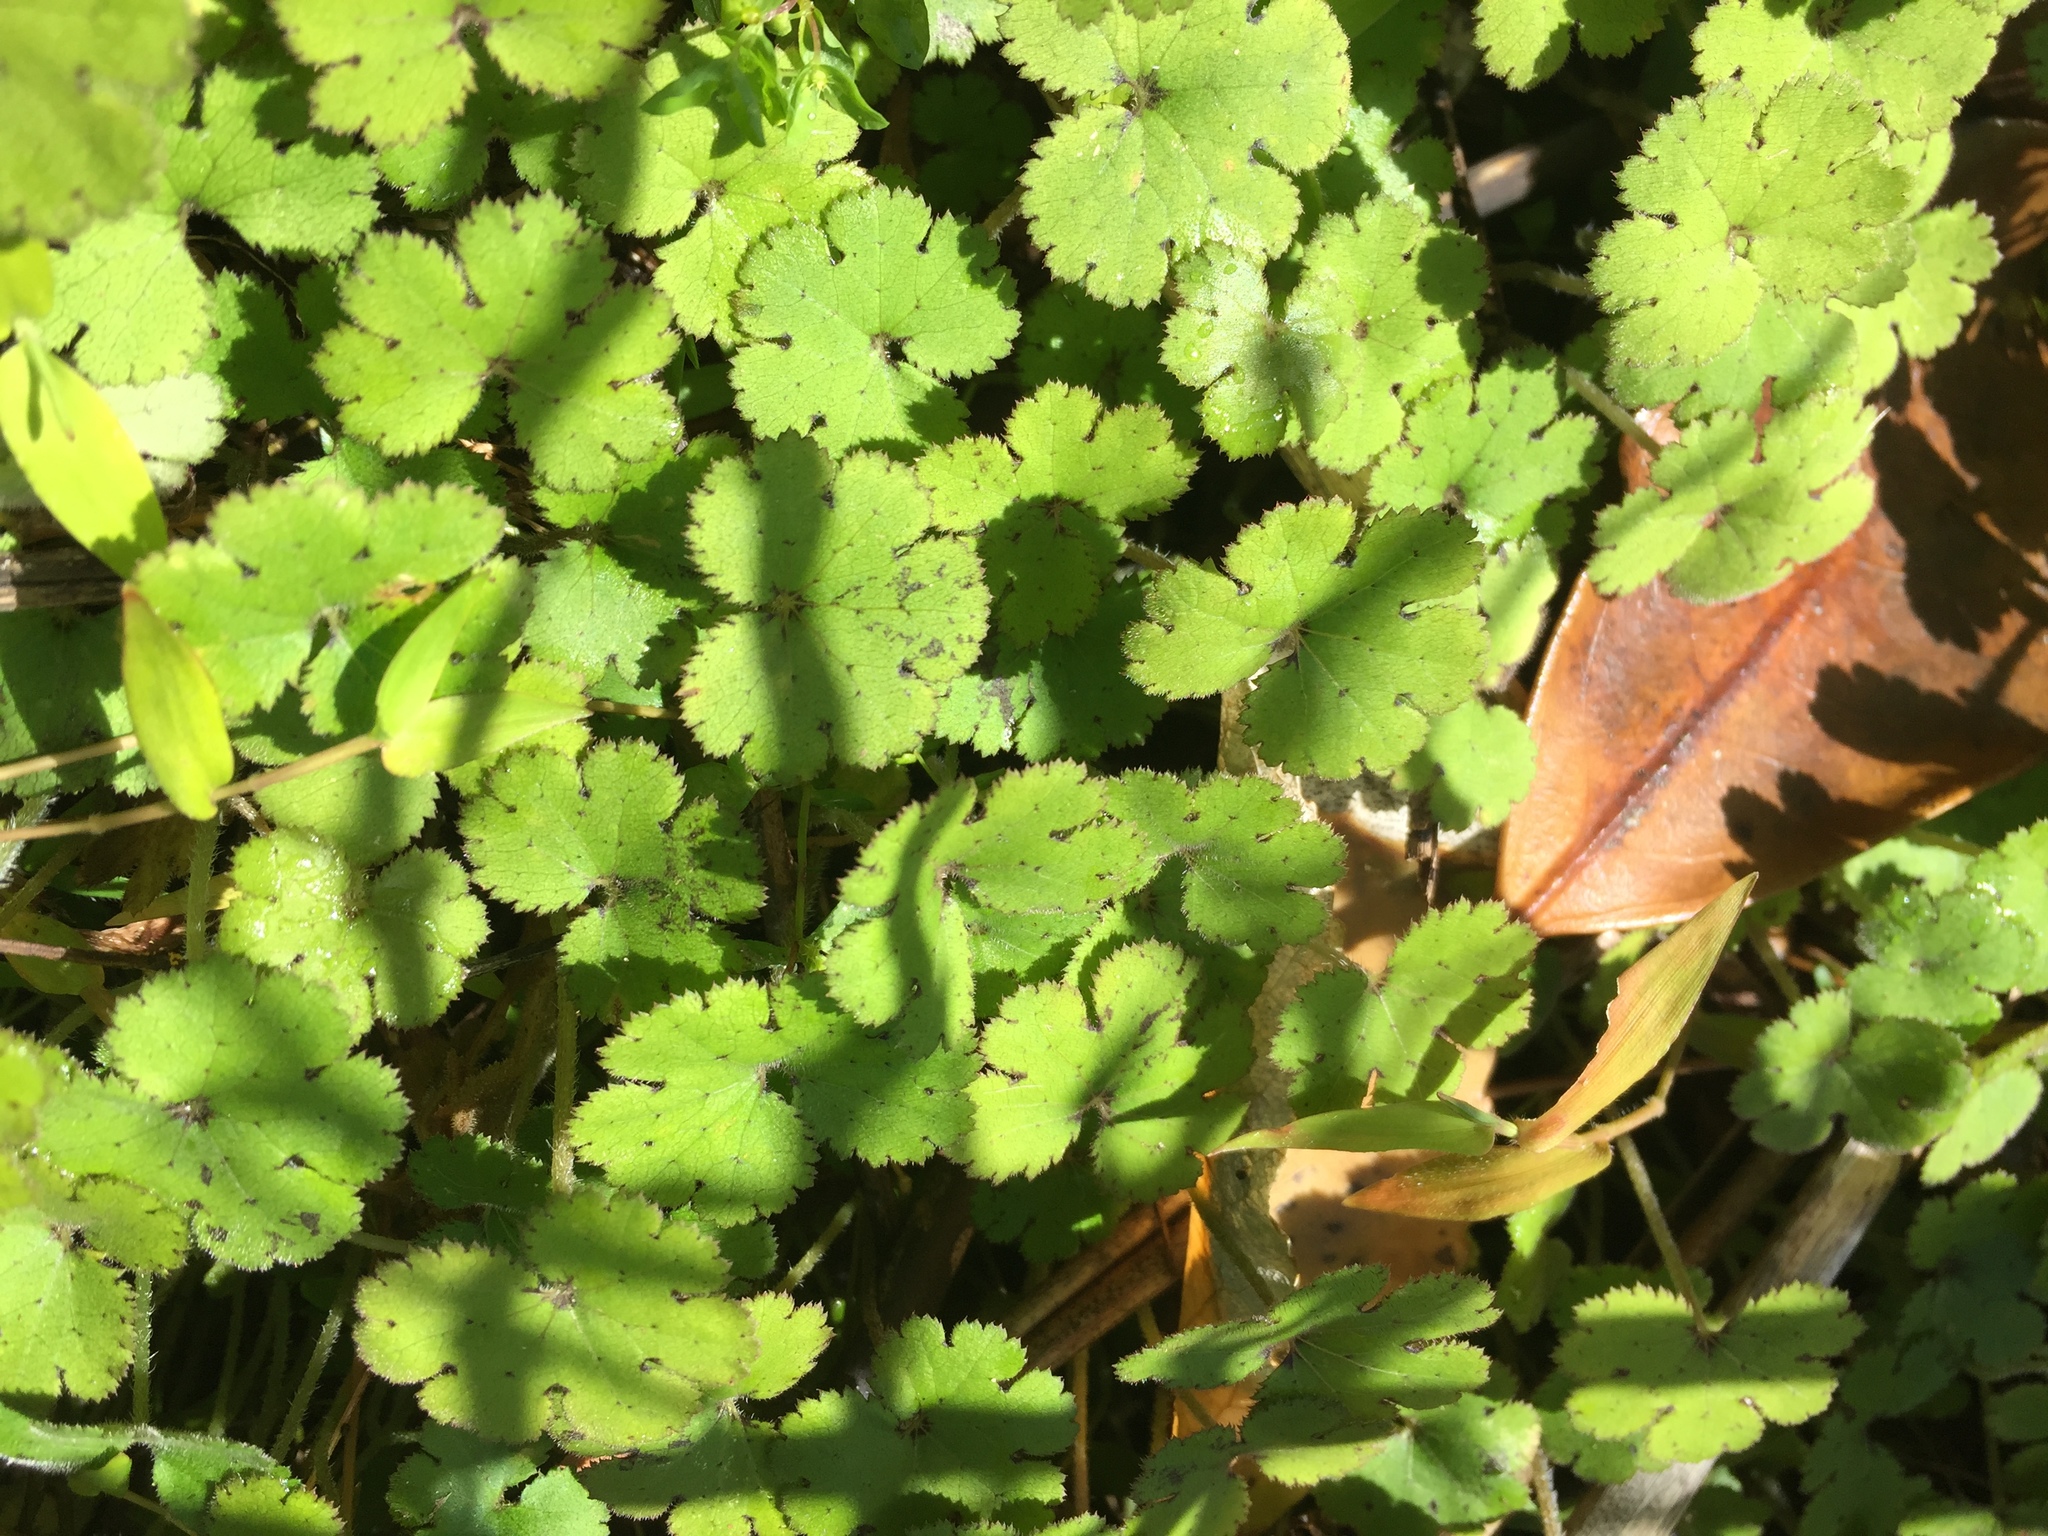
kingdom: Plantae
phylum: Tracheophyta
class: Magnoliopsida
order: Apiales
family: Araliaceae
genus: Hydrocotyle
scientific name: Hydrocotyle elongata
